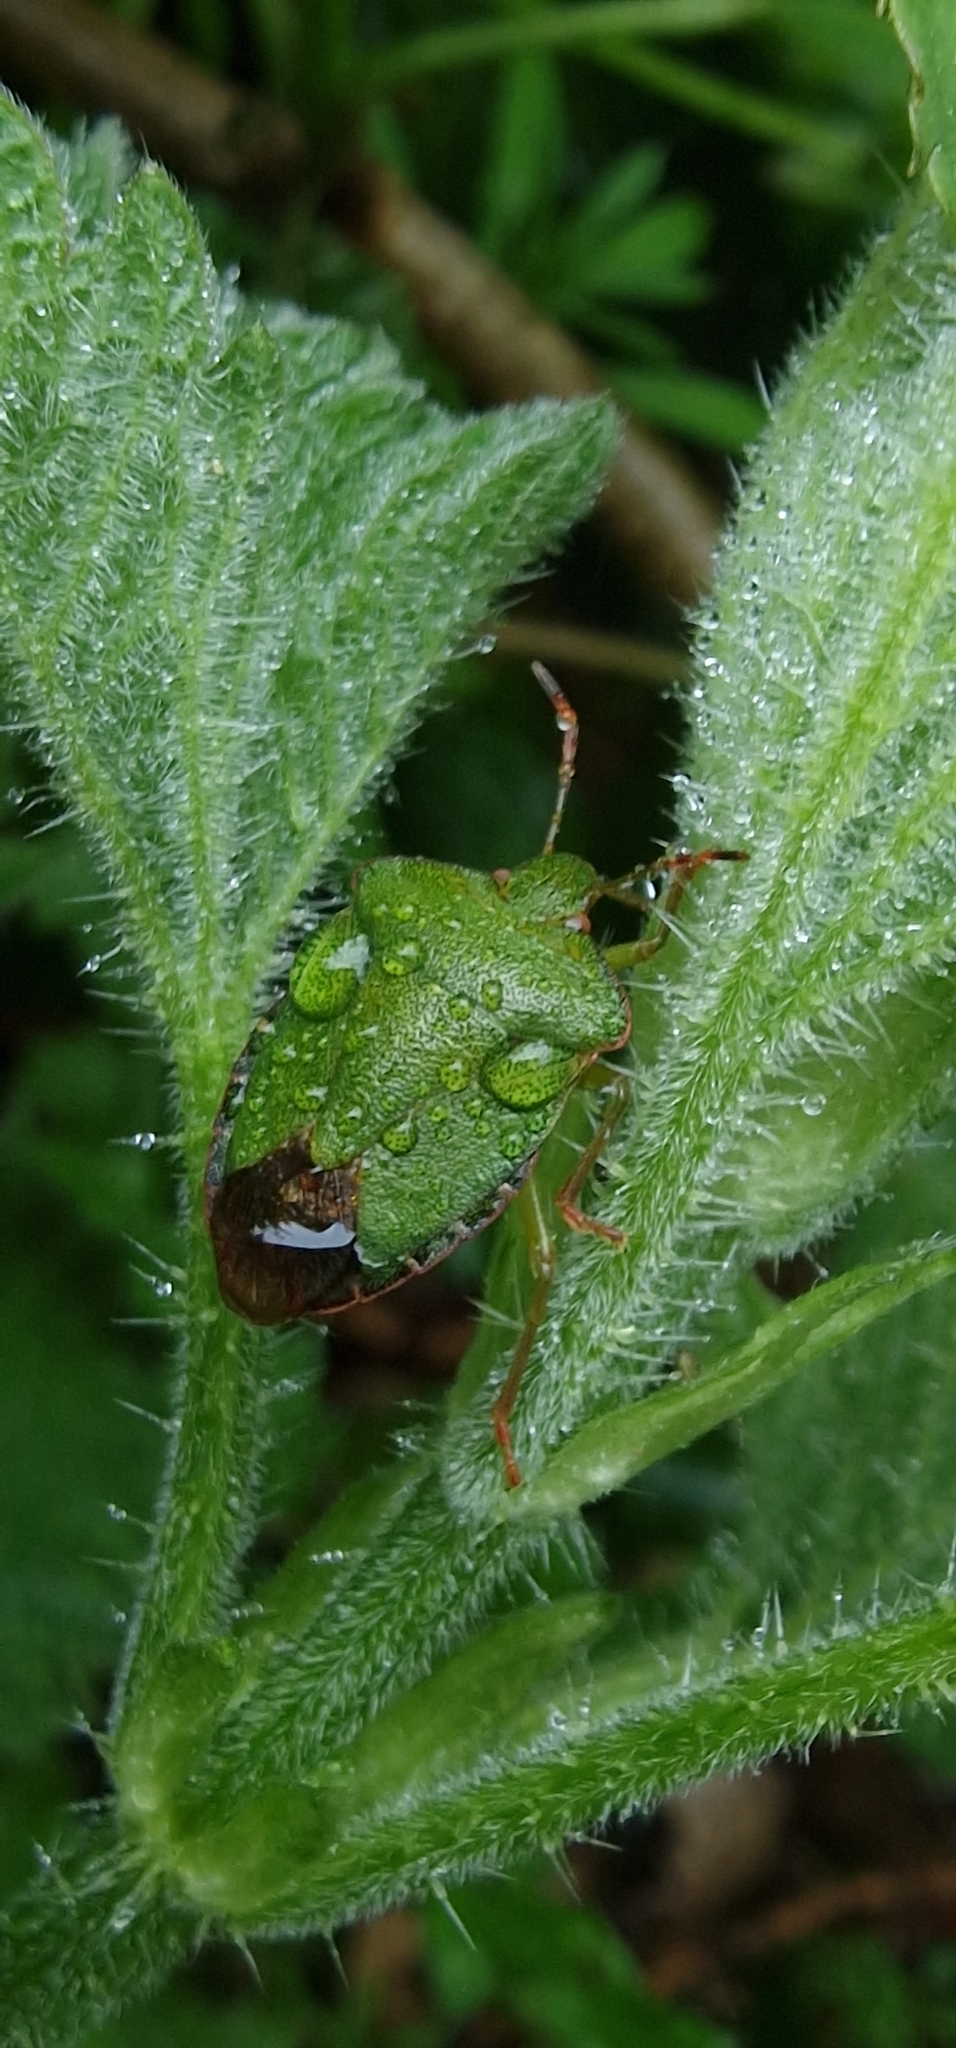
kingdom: Animalia
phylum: Arthropoda
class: Insecta
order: Hemiptera
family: Pentatomidae
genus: Palomena
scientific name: Palomena prasina
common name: Green shieldbug
